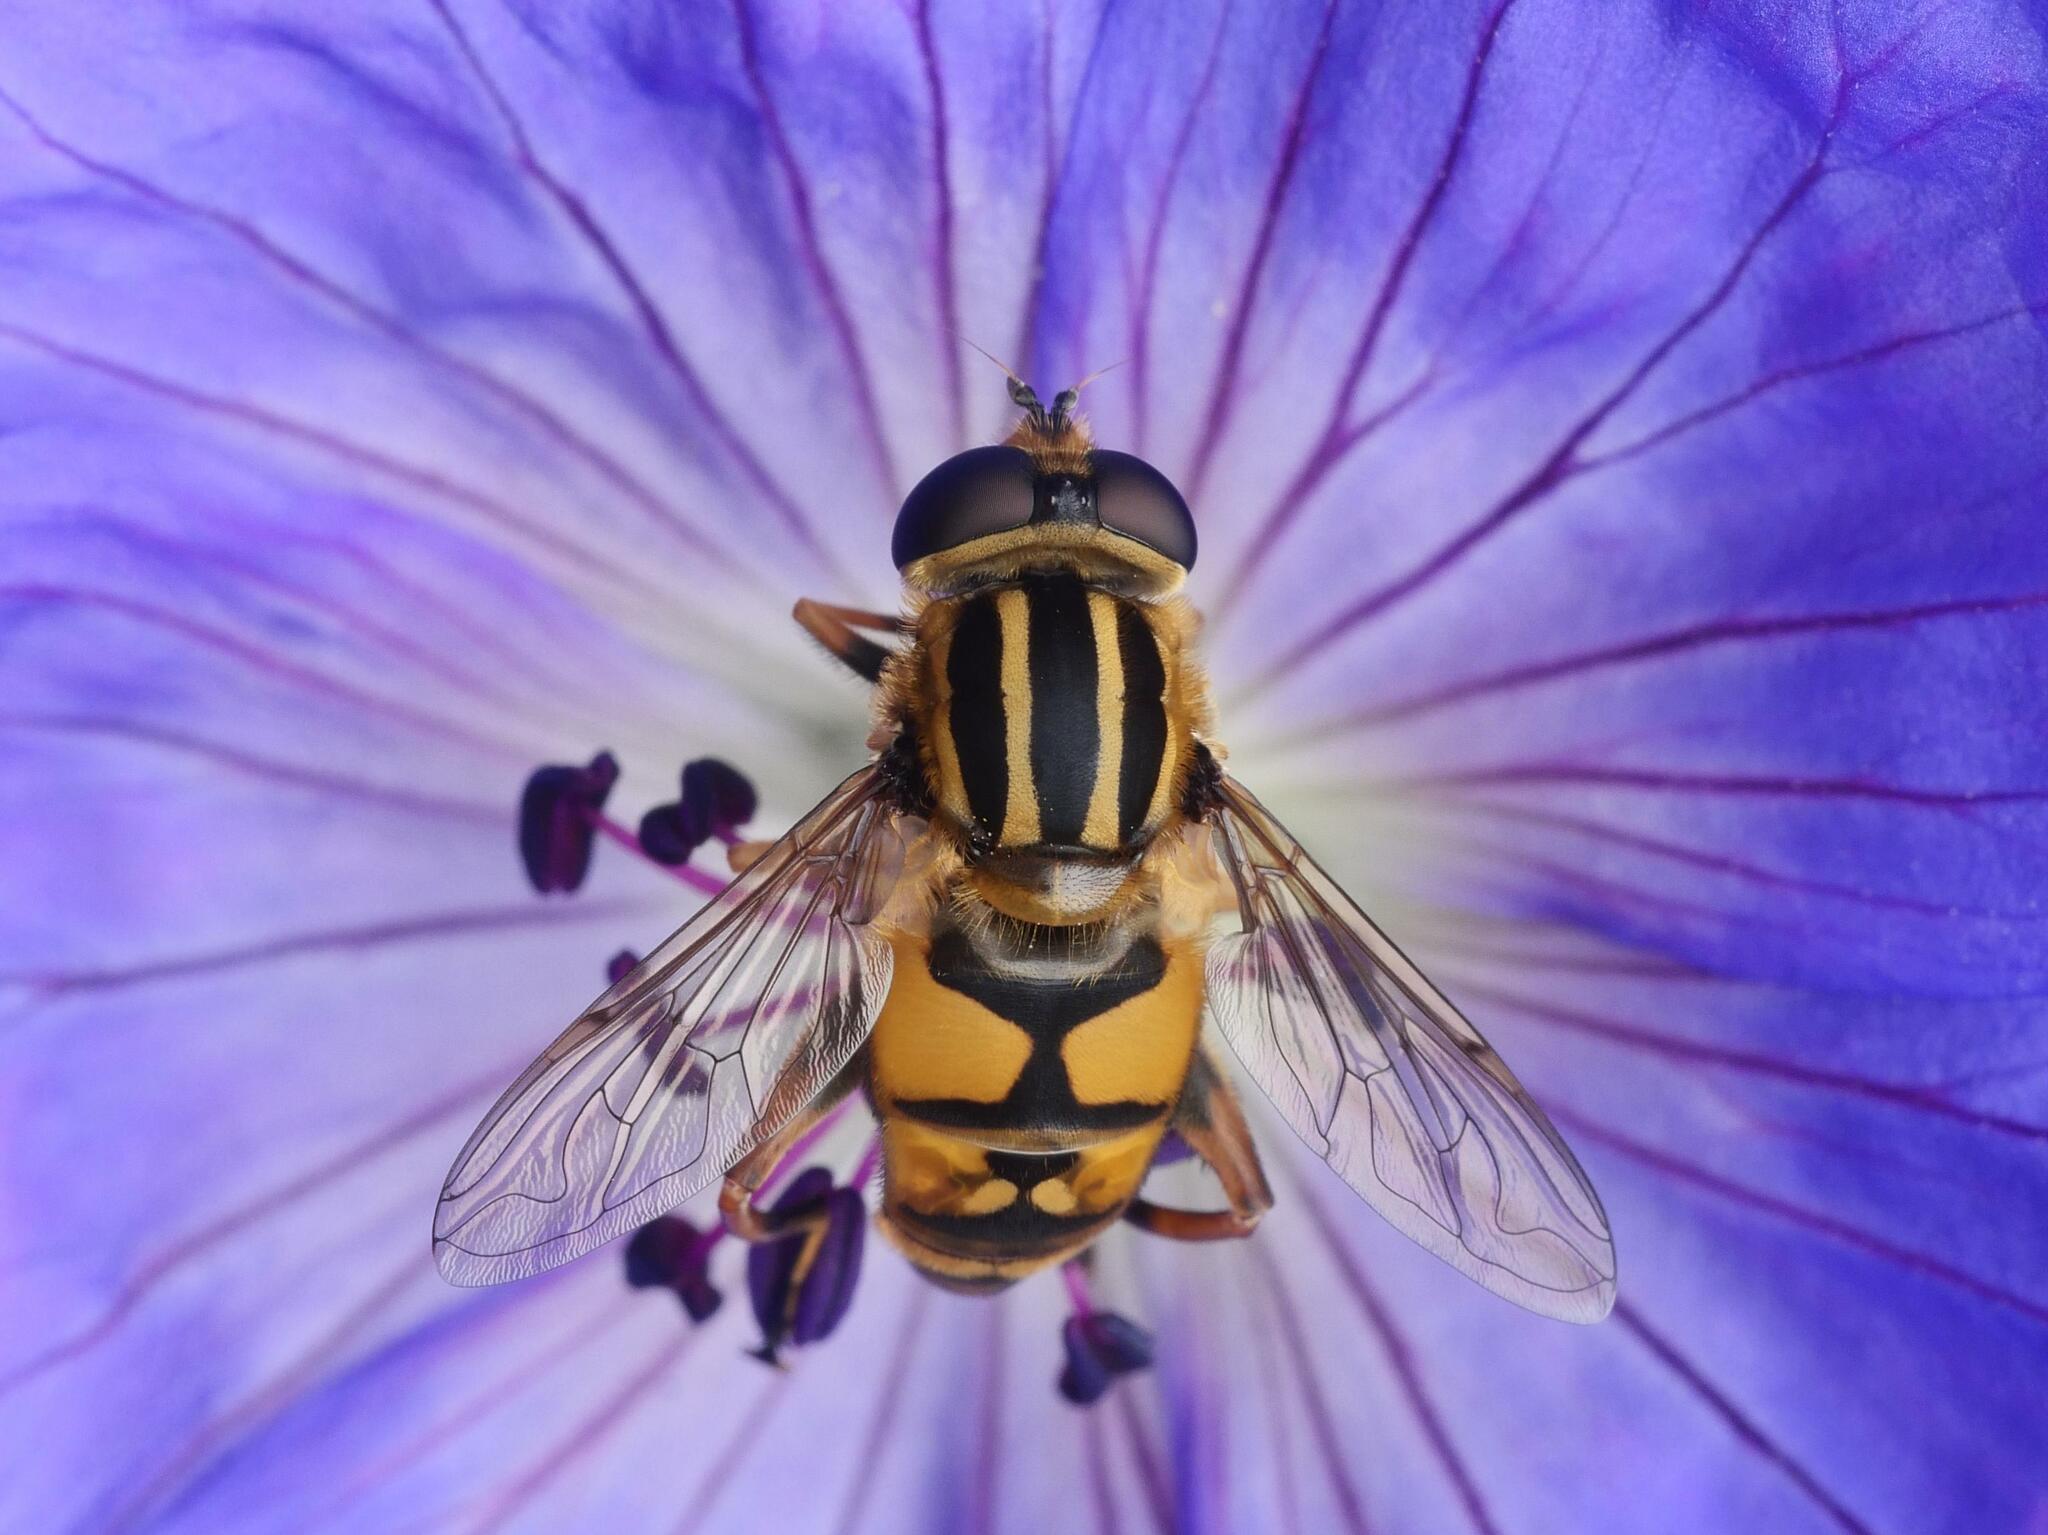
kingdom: Animalia
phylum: Arthropoda
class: Insecta
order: Diptera
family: Syrphidae
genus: Helophilus
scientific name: Helophilus pendulus
